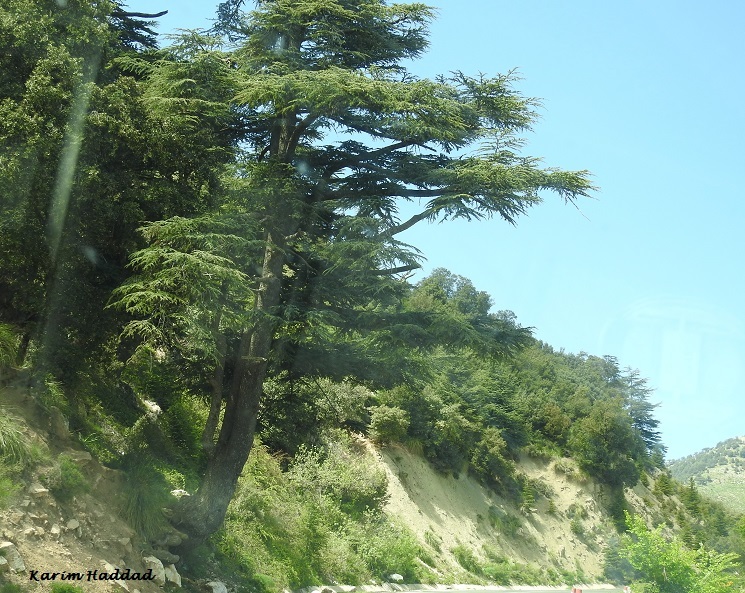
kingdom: Plantae
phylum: Tracheophyta
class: Pinopsida
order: Pinales
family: Pinaceae
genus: Cedrus
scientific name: Cedrus atlantica
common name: Atlas cedar
